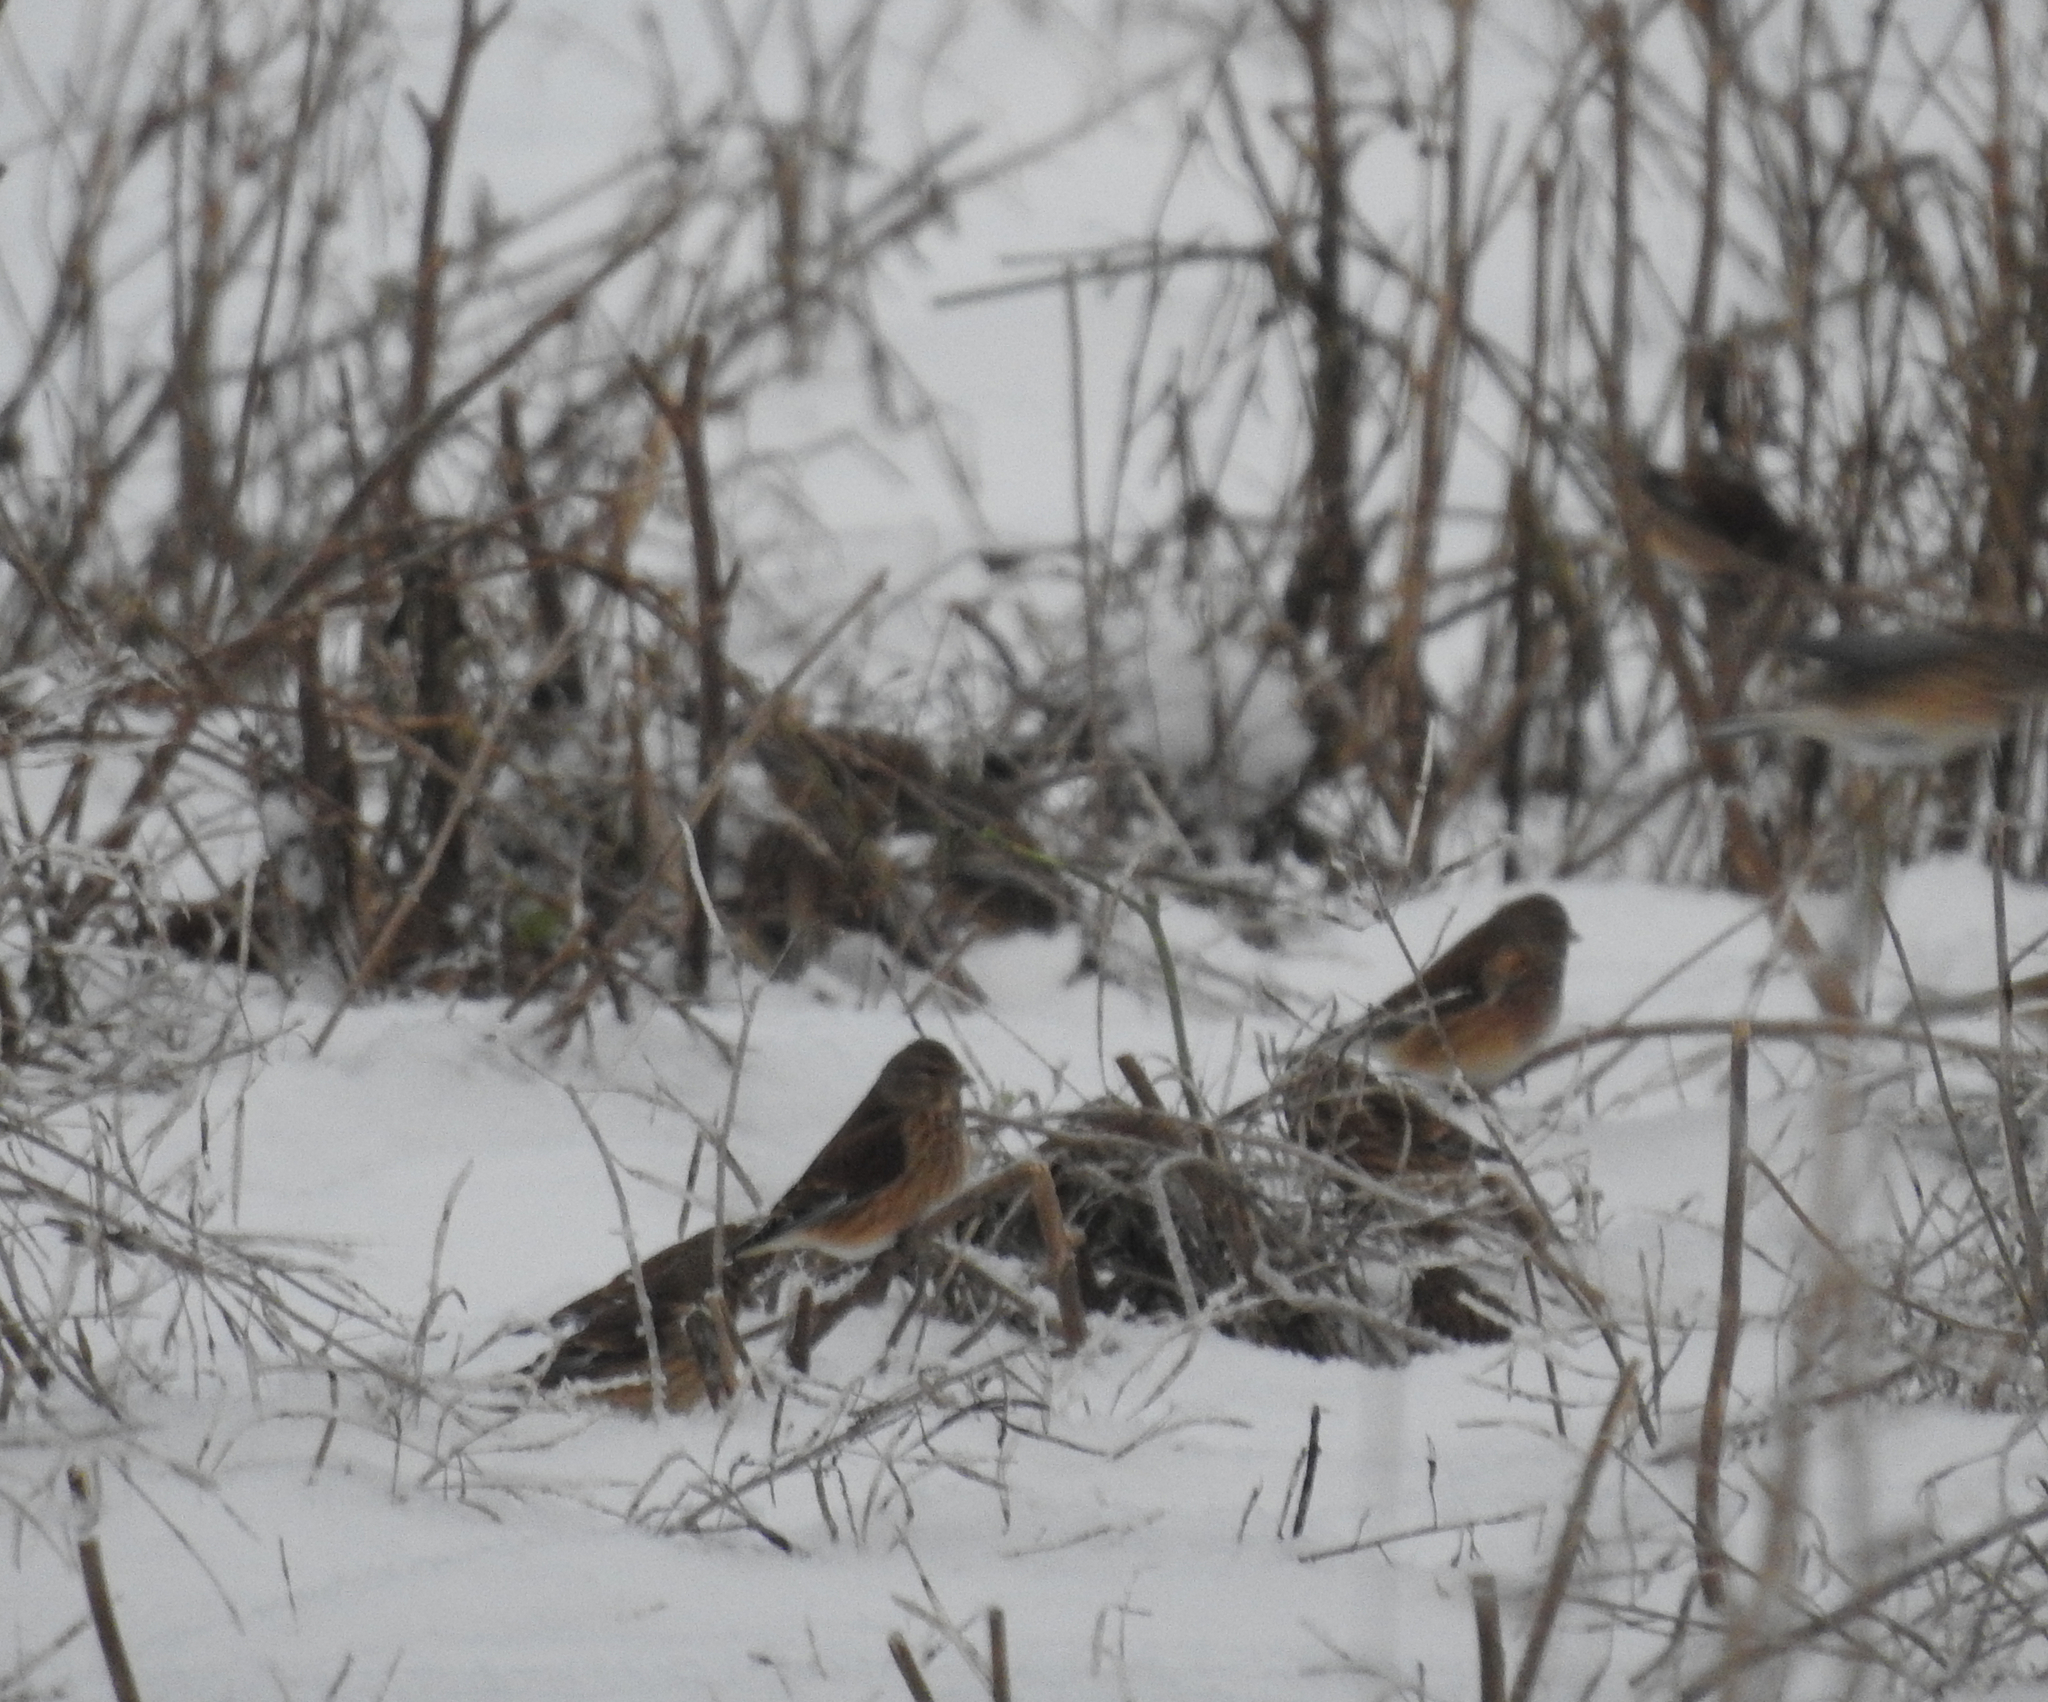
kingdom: Animalia
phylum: Chordata
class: Aves
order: Passeriformes
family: Fringillidae
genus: Linaria
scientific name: Linaria cannabina
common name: Common linnet
